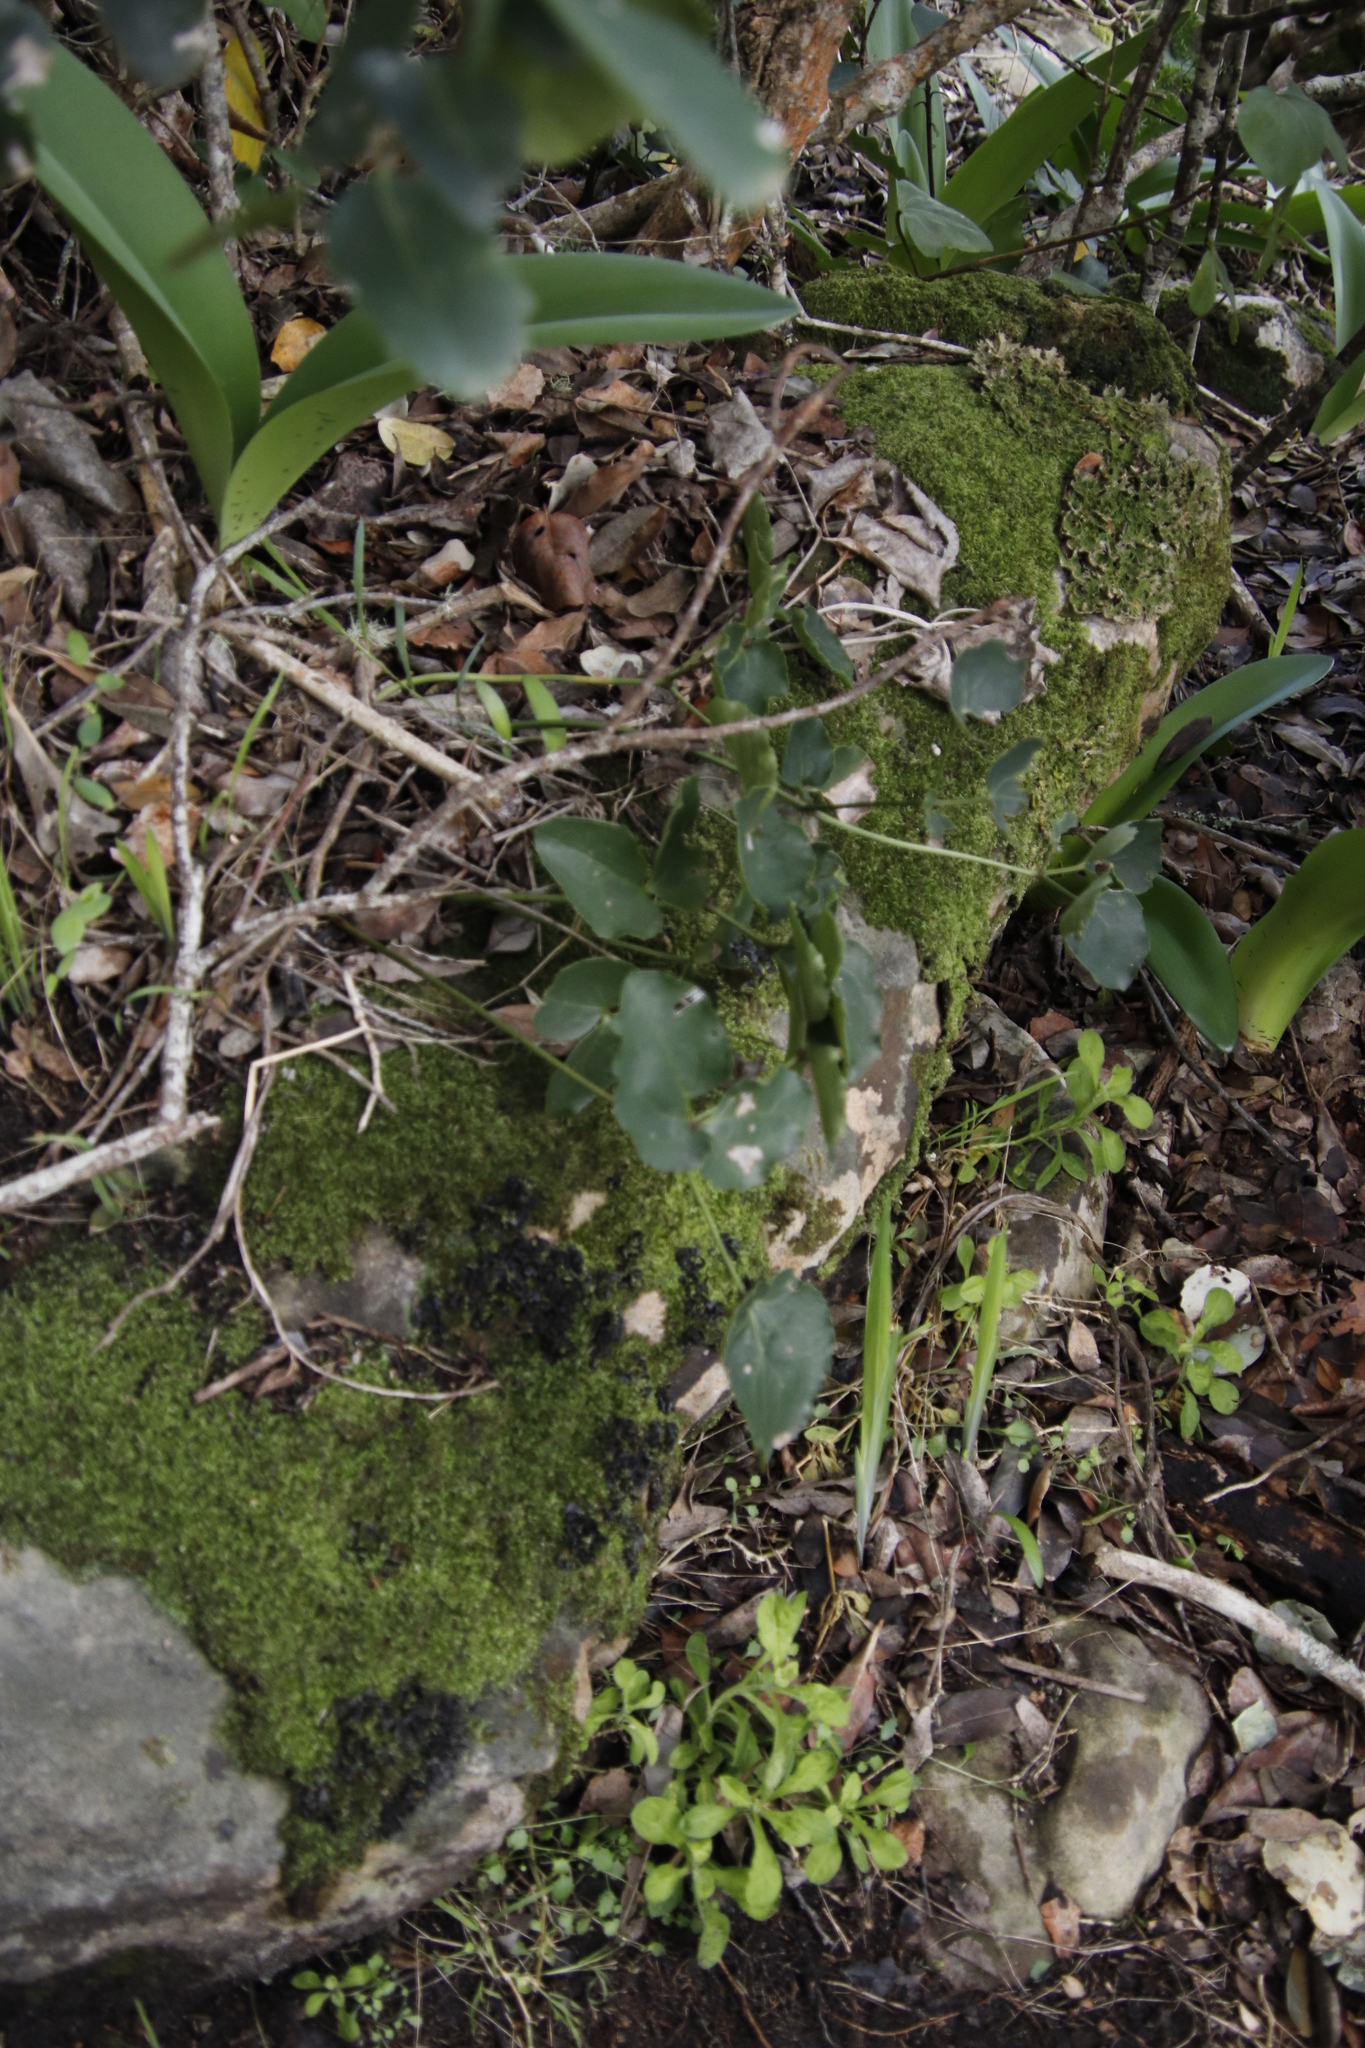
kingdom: Plantae
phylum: Tracheophyta
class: Liliopsida
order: Asparagales
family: Amaryllidaceae
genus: Haemanthus
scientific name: Haemanthus coccineus
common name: Cape-tulip
